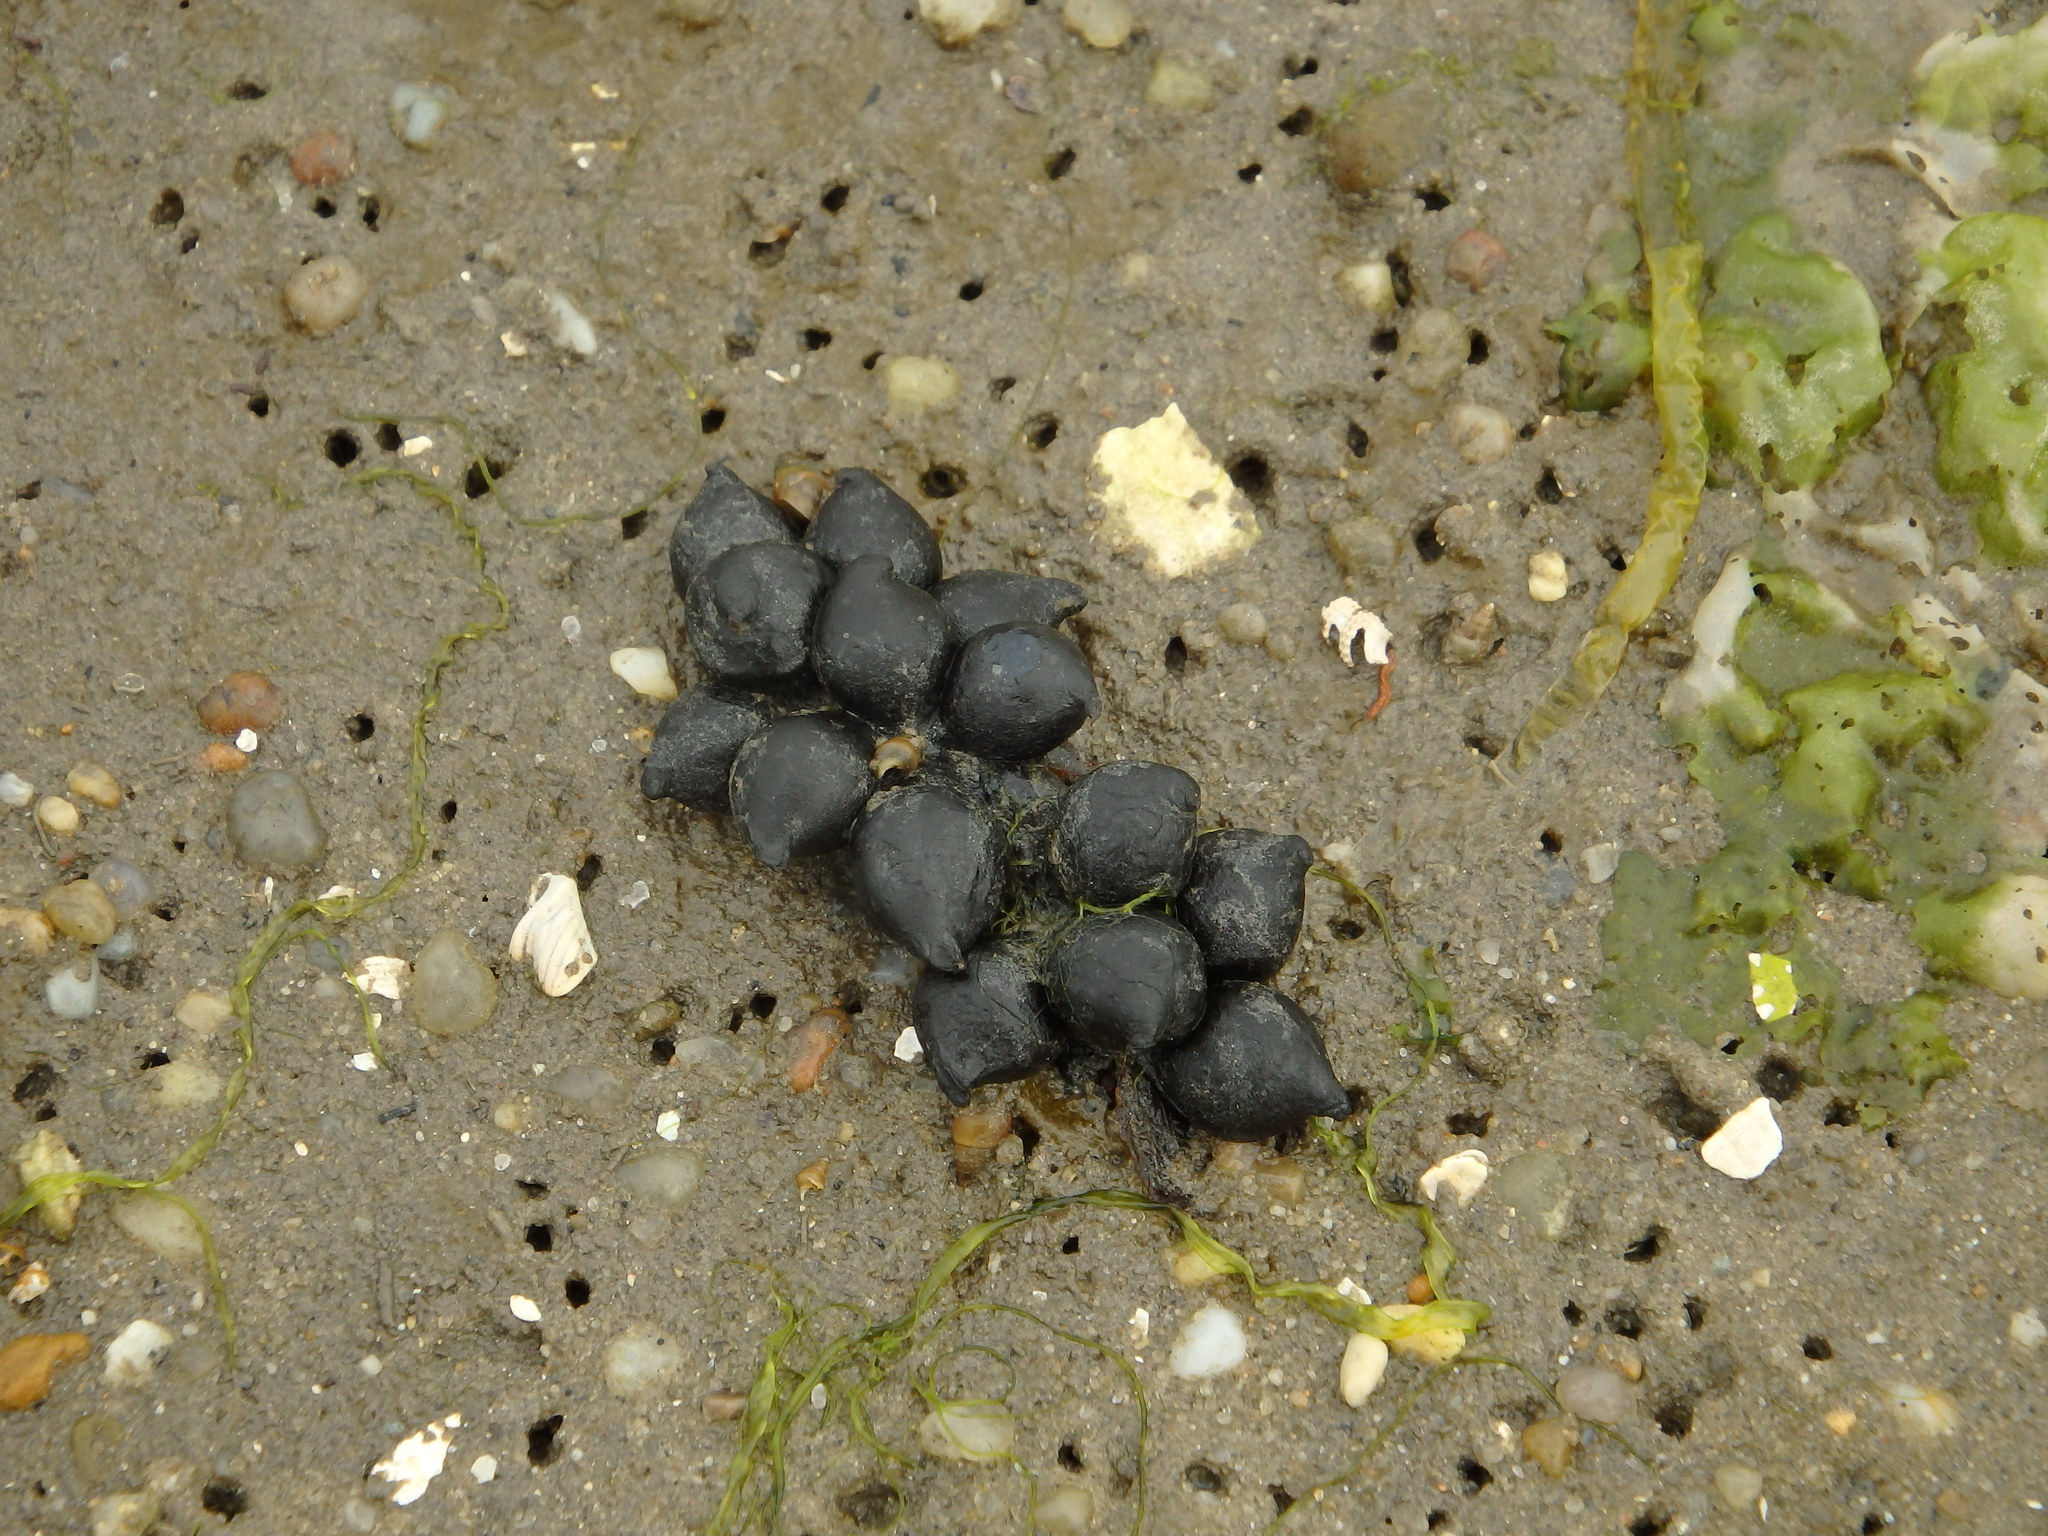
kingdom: Animalia
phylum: Mollusca
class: Cephalopoda
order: Sepiida
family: Sepiidae
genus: Sepia
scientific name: Sepia officinalis
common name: Common cuttlefish
